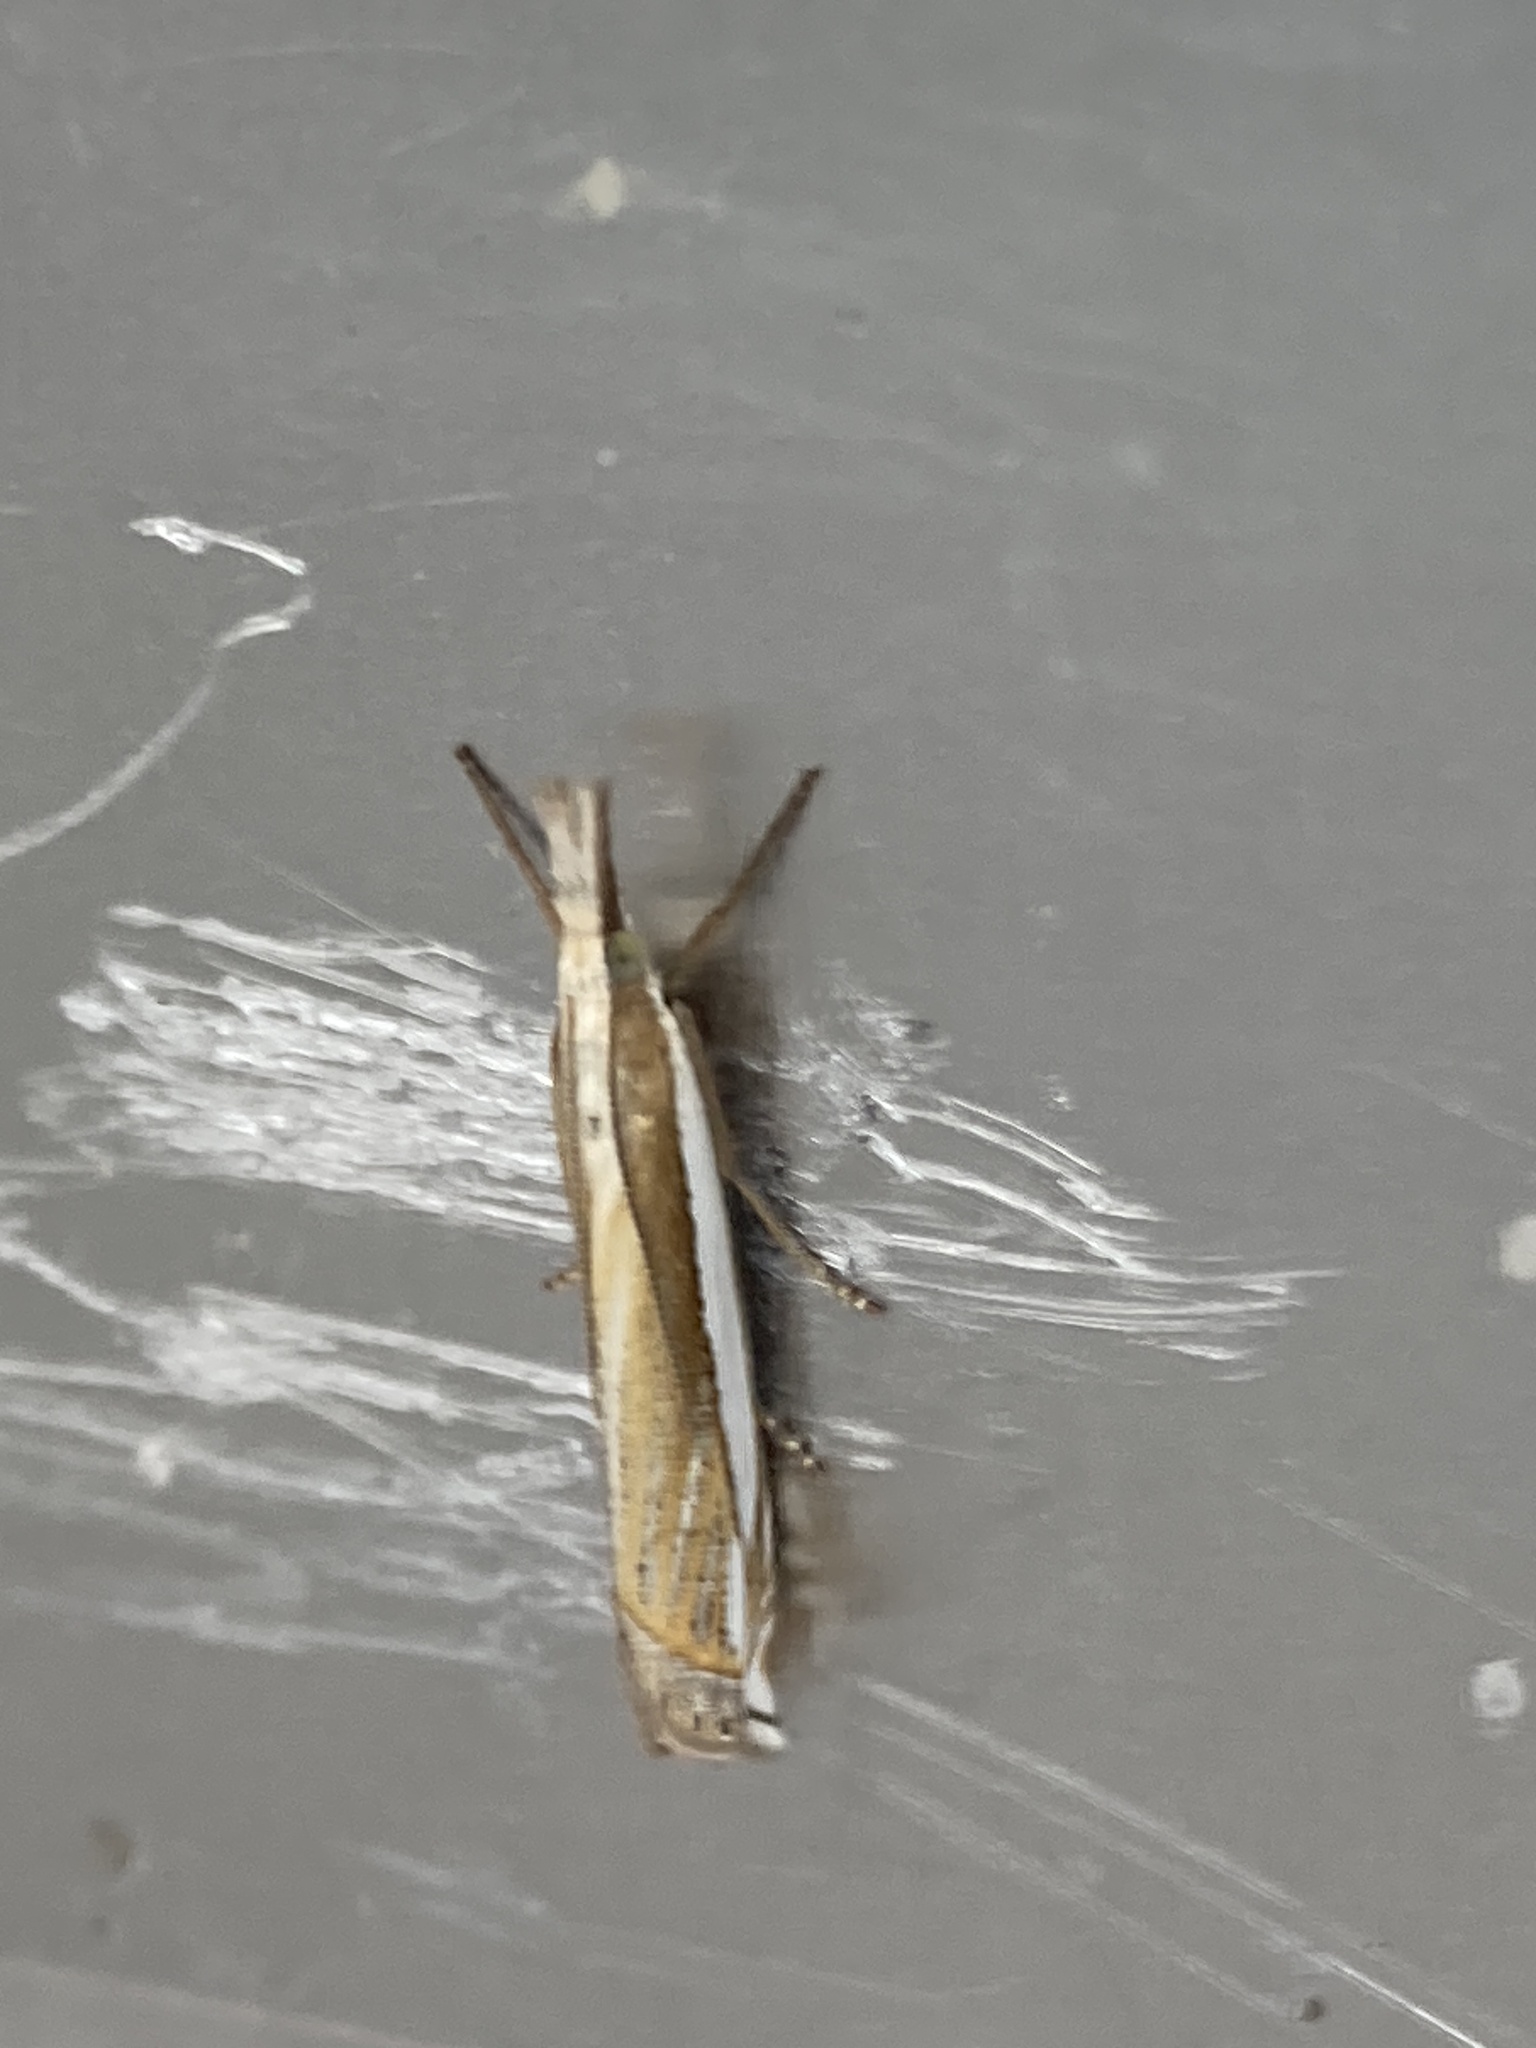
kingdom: Animalia
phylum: Arthropoda
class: Insecta
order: Lepidoptera
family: Crambidae
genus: Crambus
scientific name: Crambus pascuella
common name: Inlaid grass-veneer
